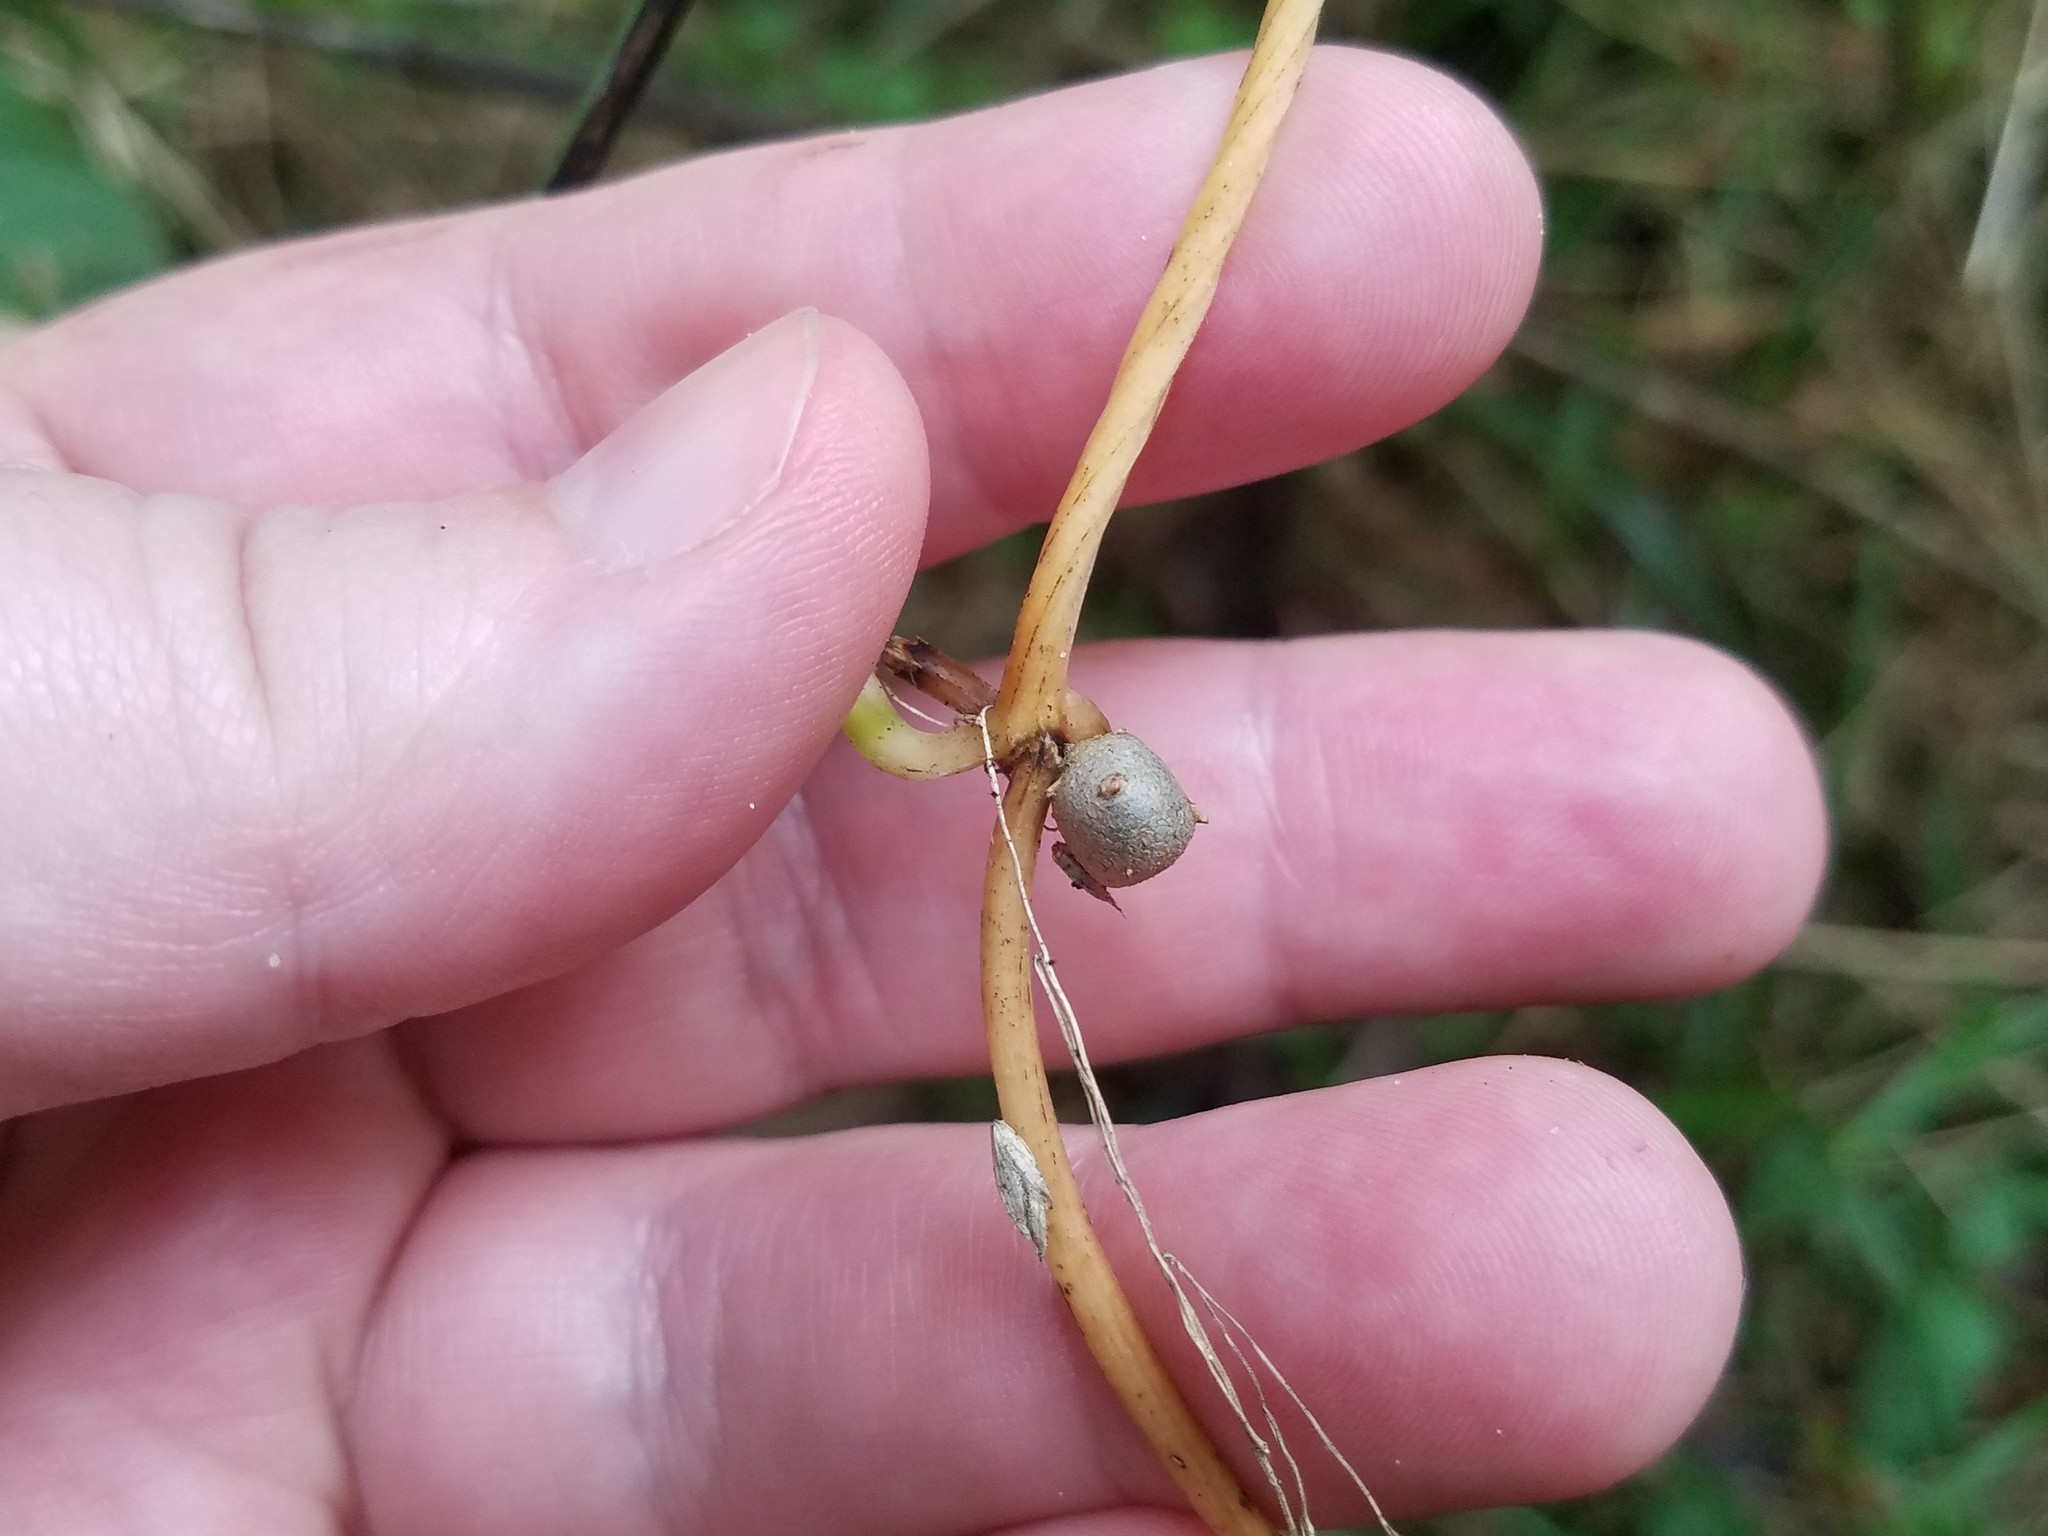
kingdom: Plantae
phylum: Tracheophyta
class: Liliopsida
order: Dioscoreales
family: Dioscoreaceae
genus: Dioscorea
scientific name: Dioscorea polystachya
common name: Chinese yam
